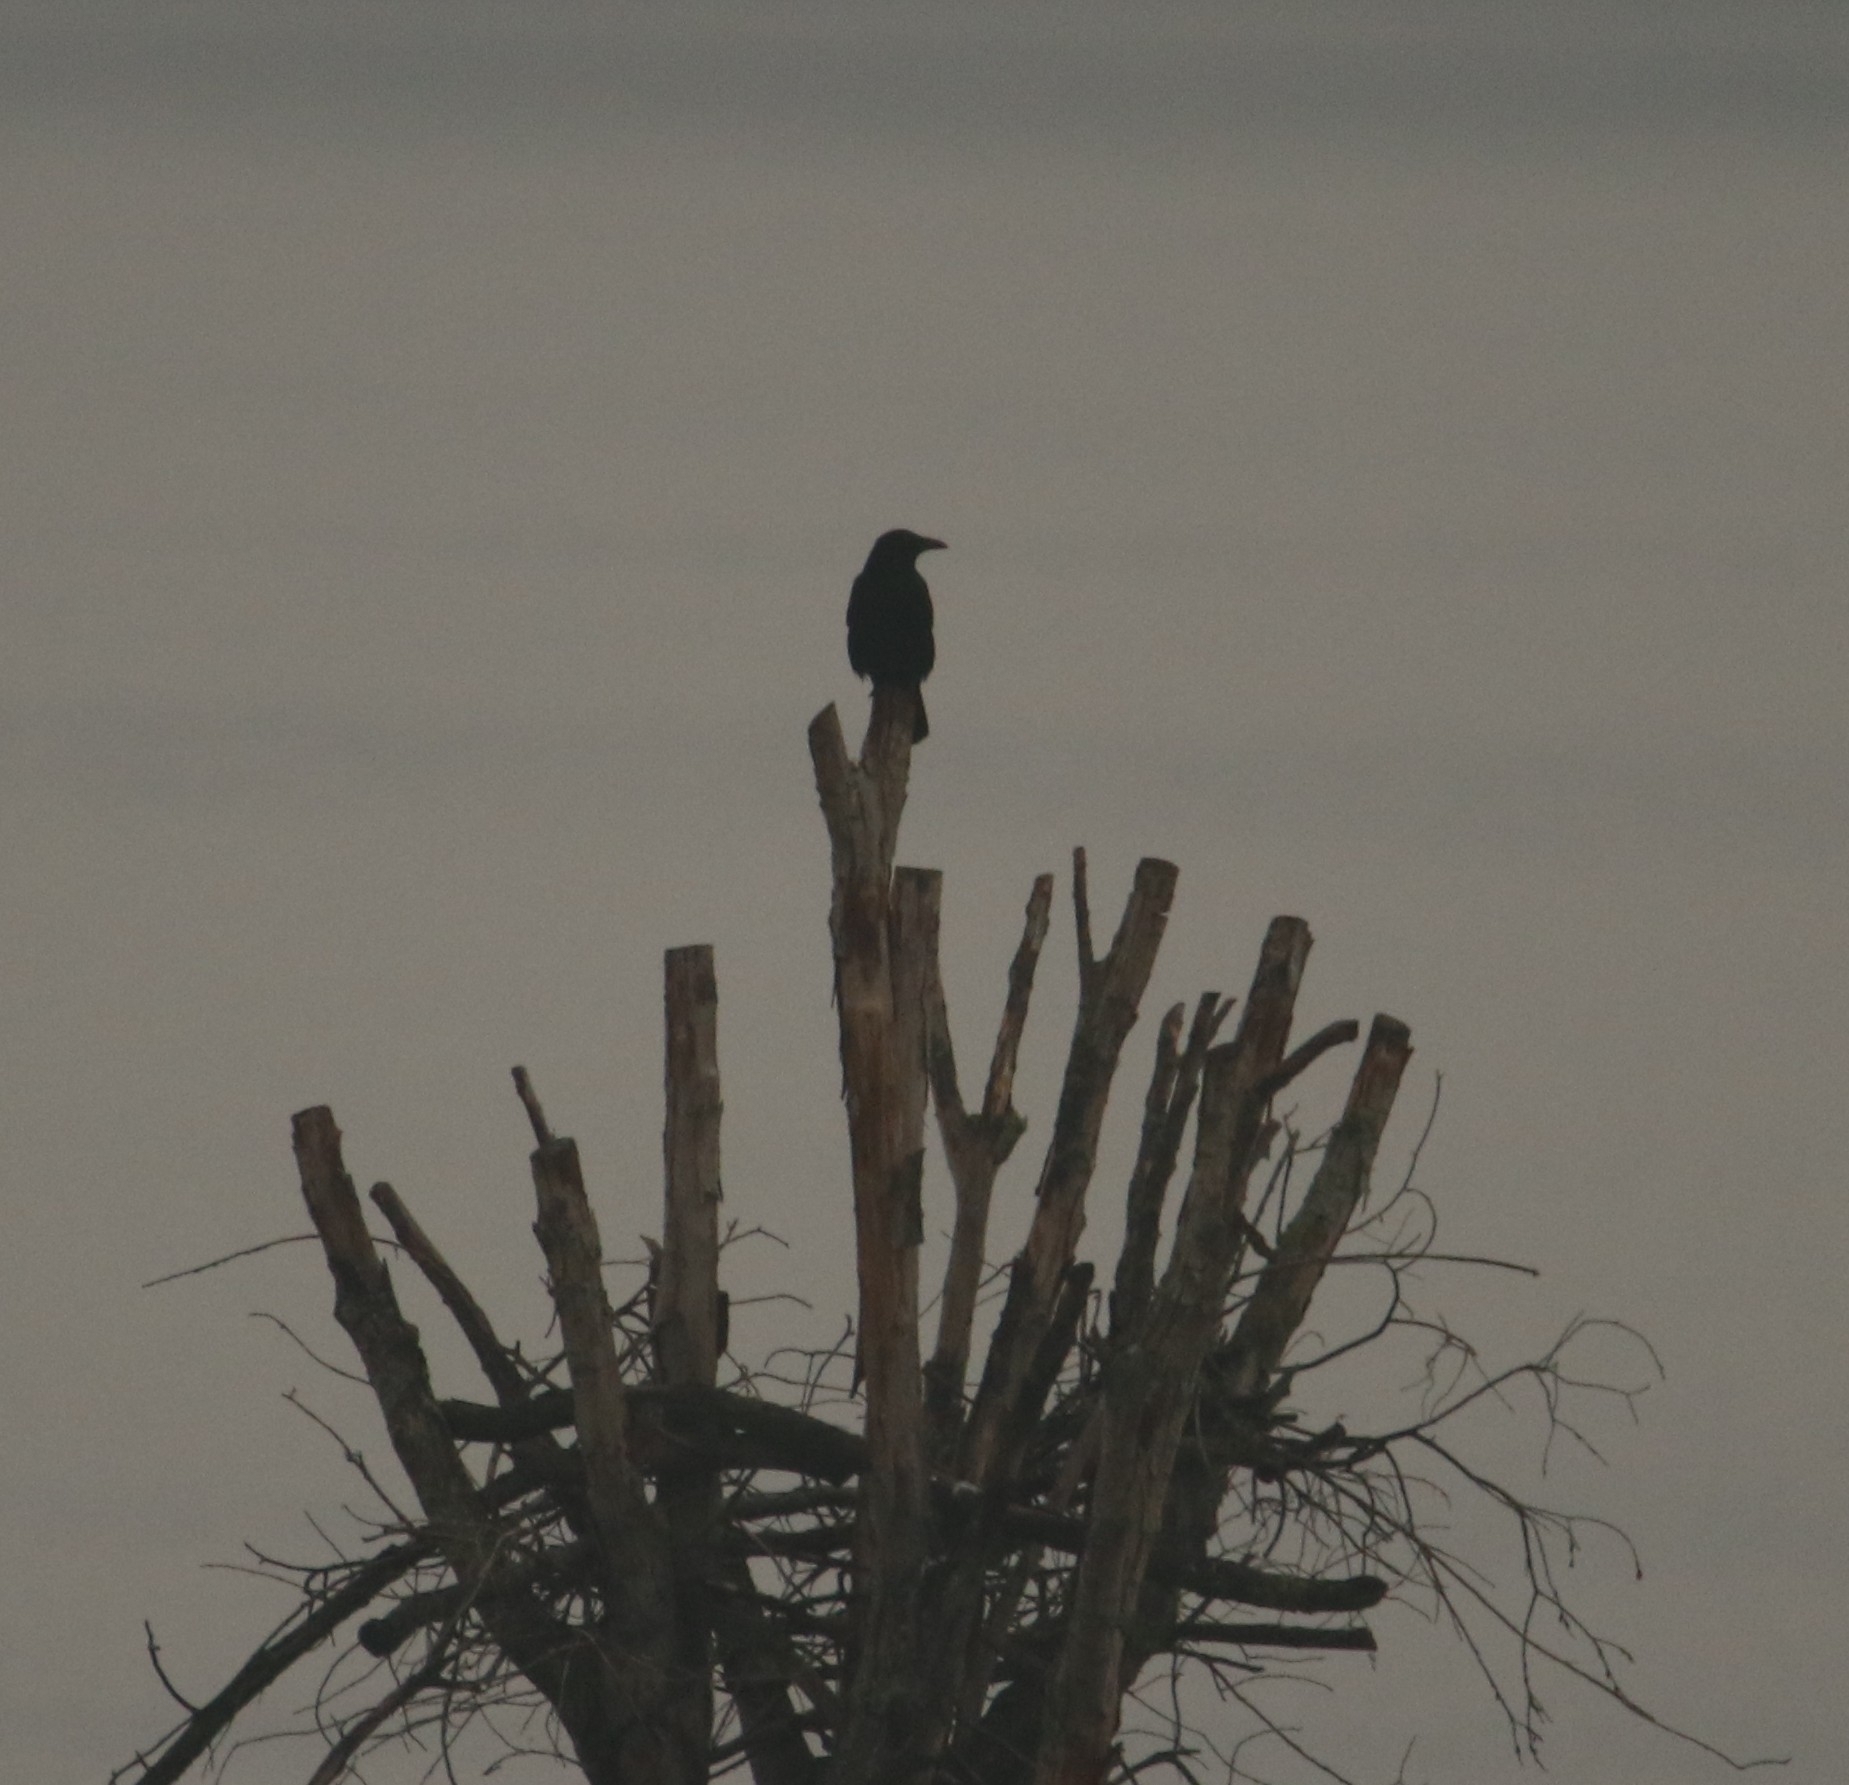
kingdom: Animalia
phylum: Chordata
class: Aves
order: Passeriformes
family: Corvidae
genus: Corvus
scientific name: Corvus corone
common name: Carrion crow
